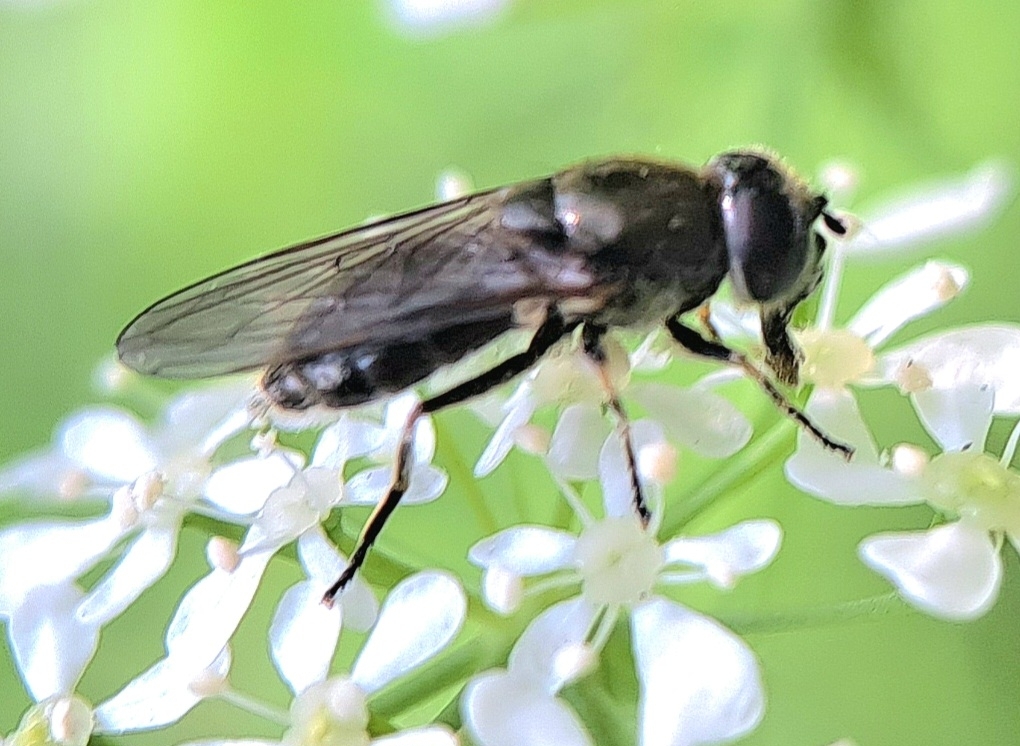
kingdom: Animalia
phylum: Arthropoda
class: Insecta
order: Diptera
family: Syrphidae
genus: Cheilosia
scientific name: Cheilosia
